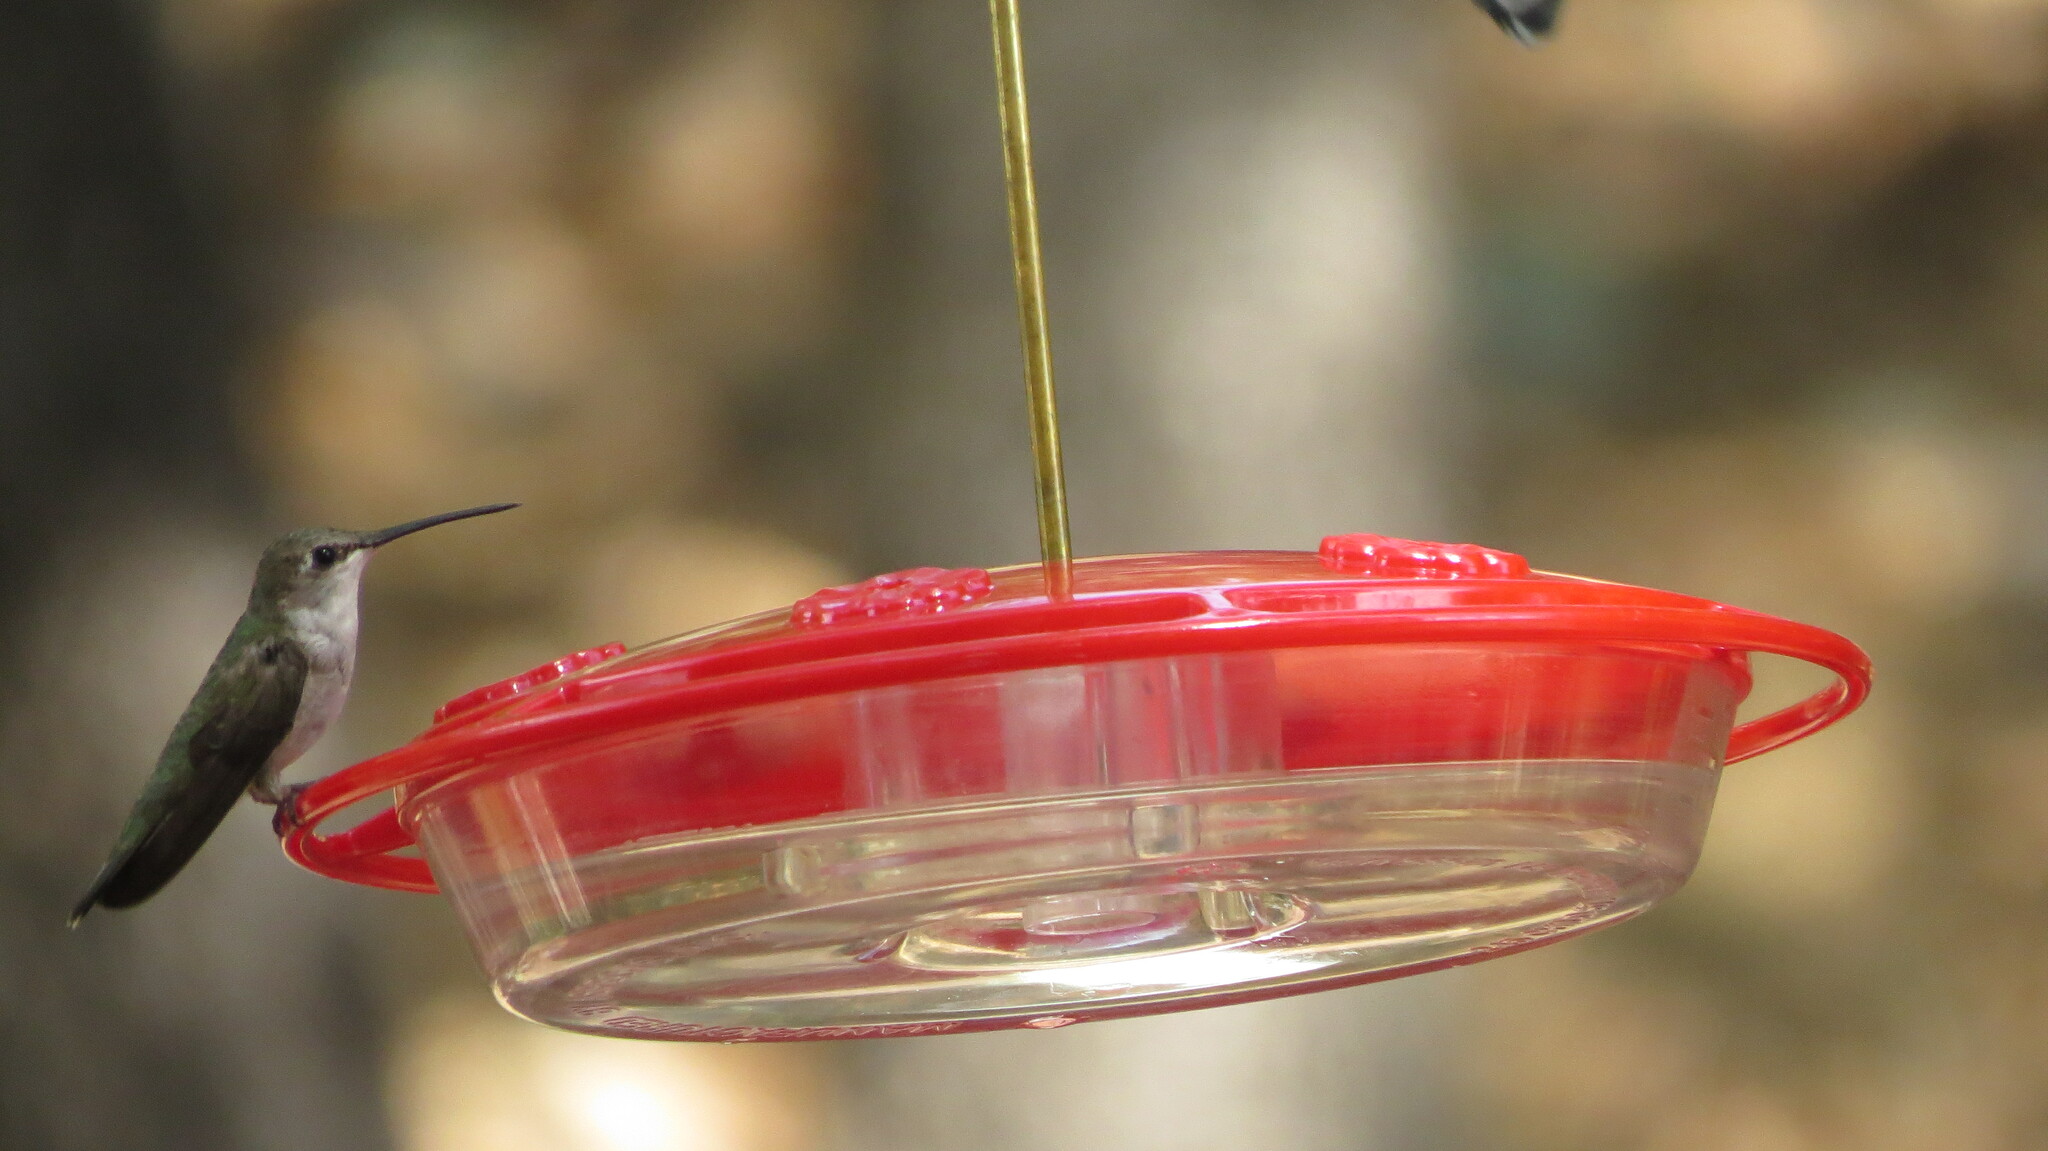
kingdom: Animalia
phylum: Chordata
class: Aves
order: Apodiformes
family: Trochilidae
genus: Archilochus
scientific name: Archilochus alexandri
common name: Black-chinned hummingbird
